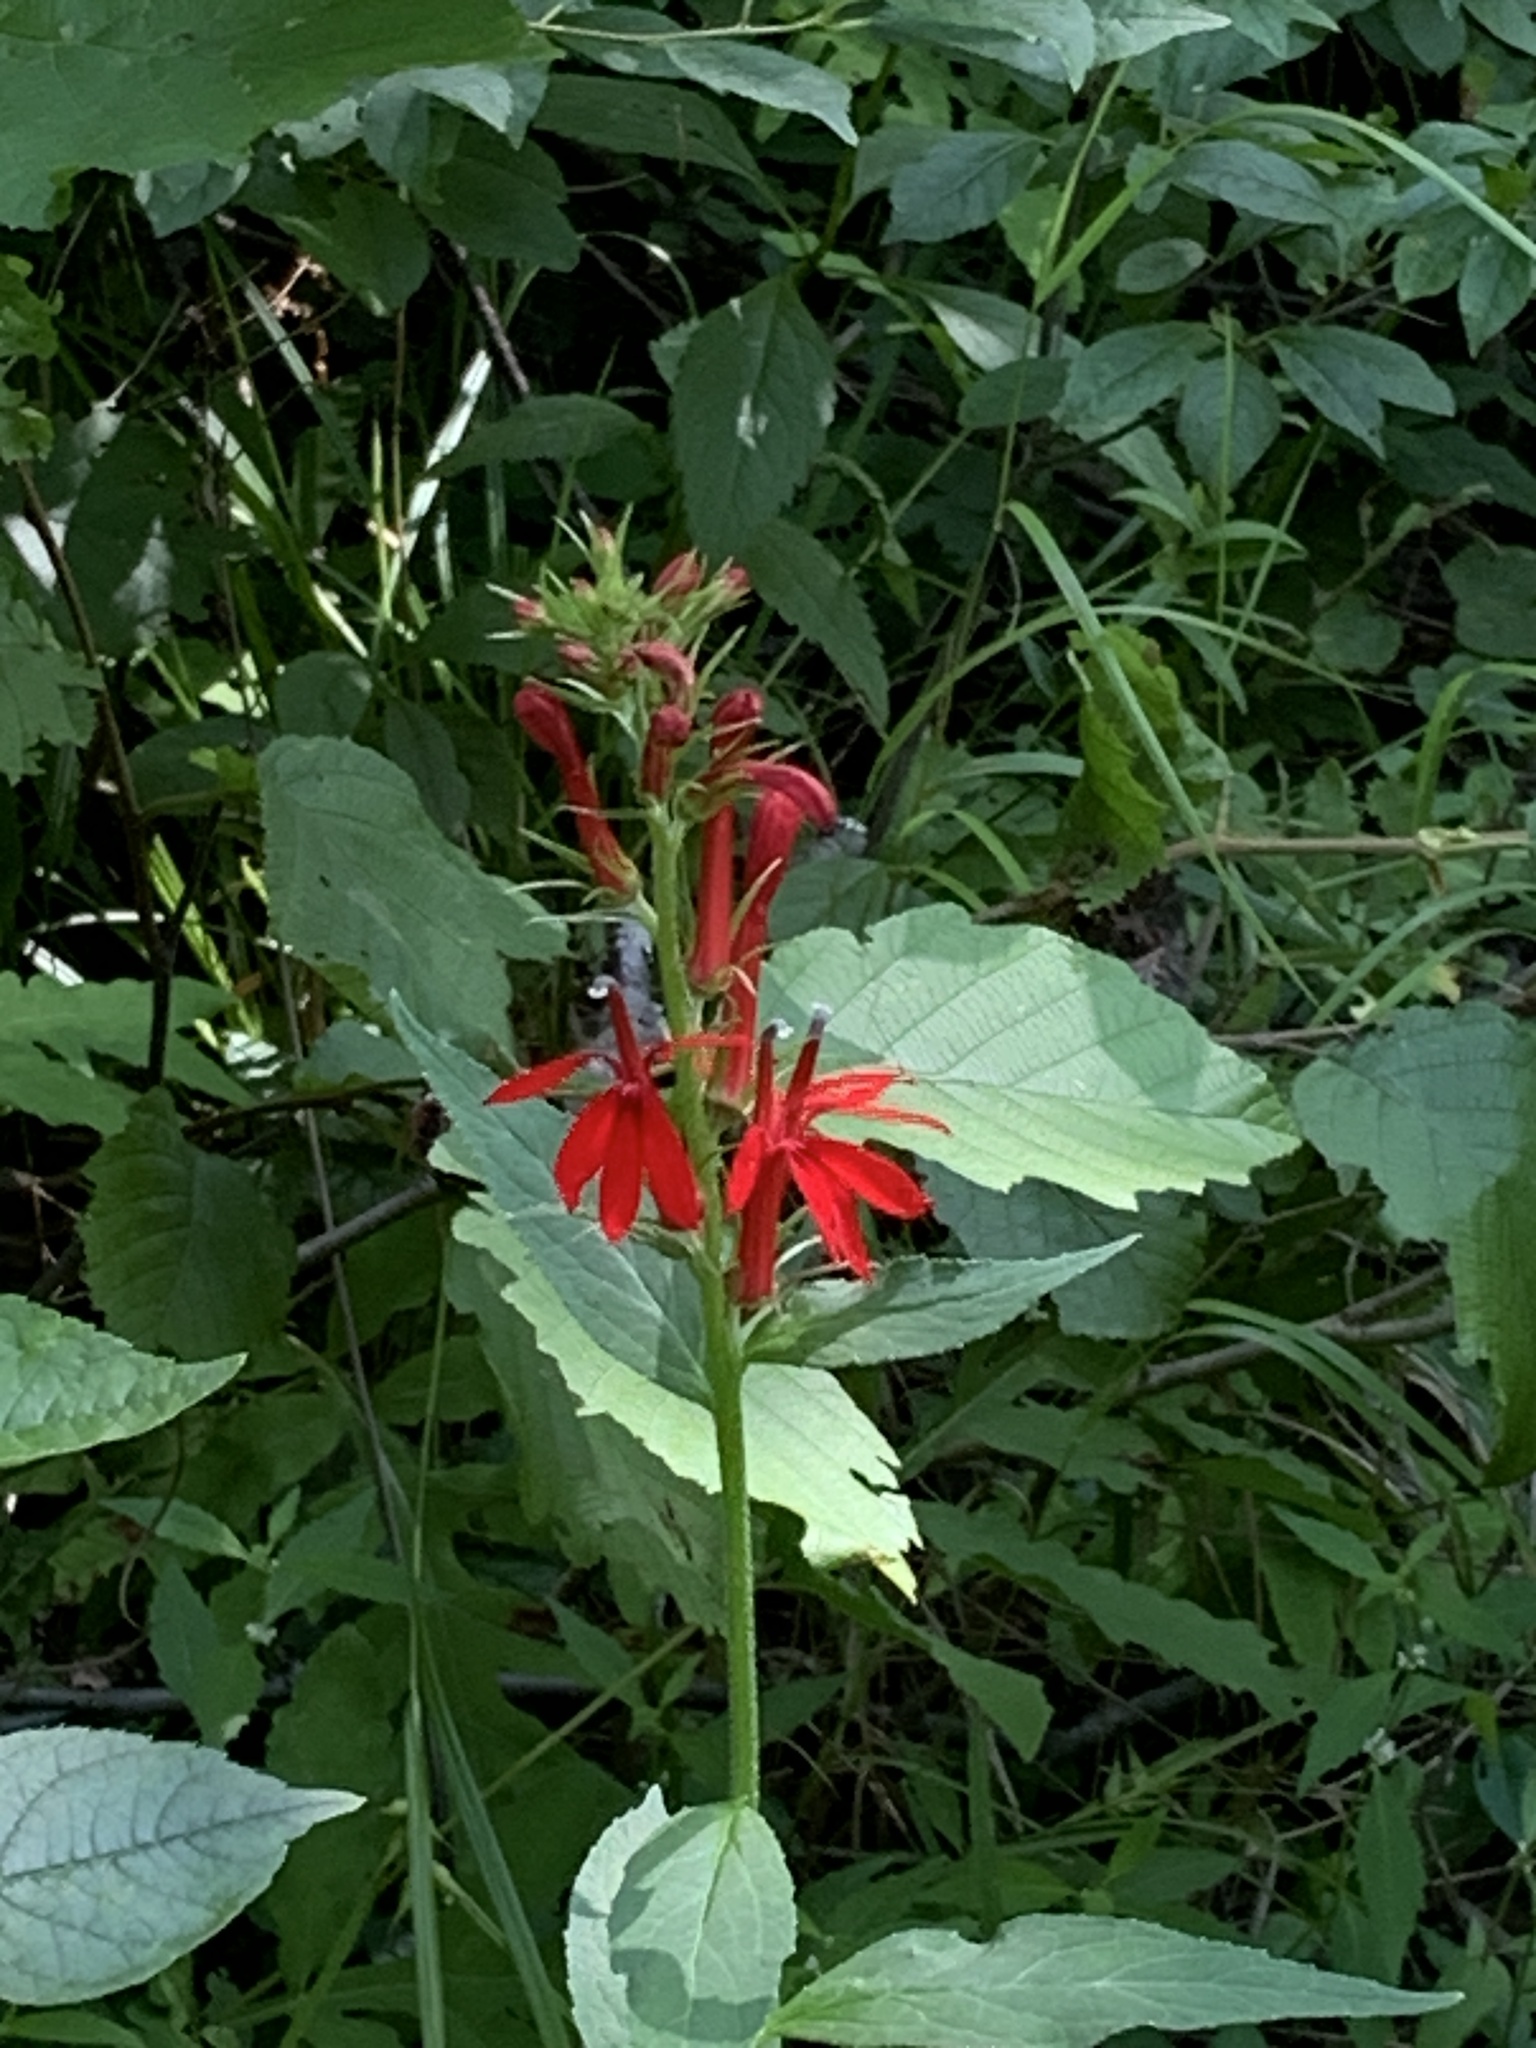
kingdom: Plantae
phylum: Tracheophyta
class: Magnoliopsida
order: Asterales
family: Campanulaceae
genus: Lobelia
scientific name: Lobelia cardinalis
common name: Cardinal flower
